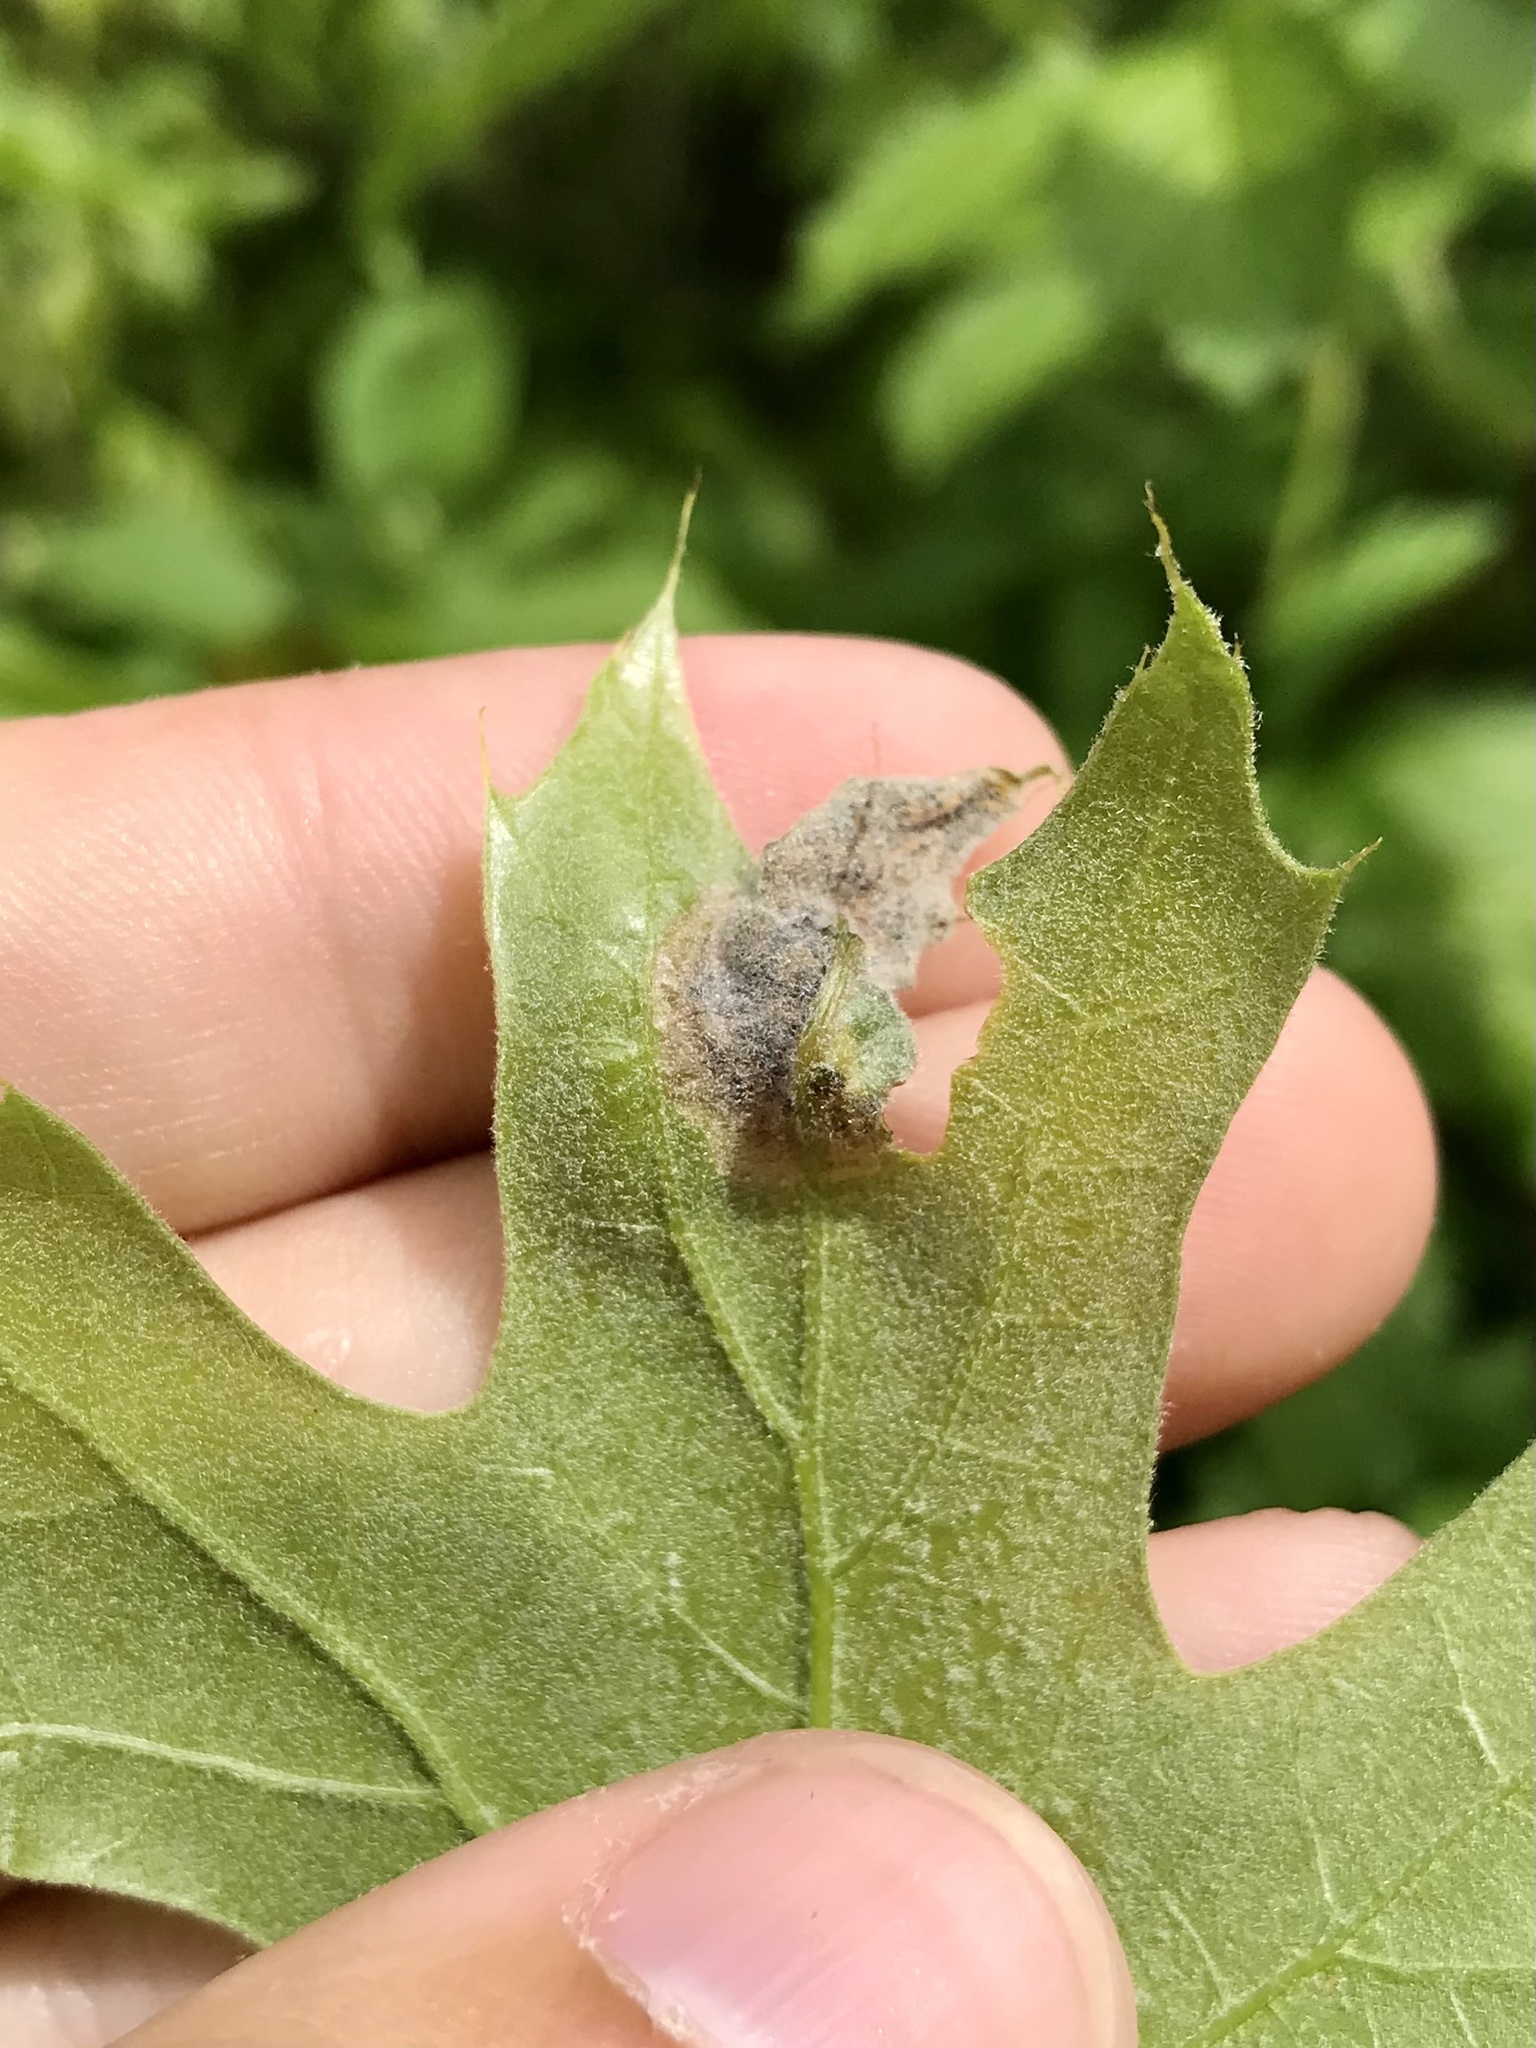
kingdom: Animalia
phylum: Arthropoda
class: Insecta
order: Diptera
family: Agromyzidae
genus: Japanagromyza
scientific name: Japanagromyza viridula
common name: Oak shothole leafminer
